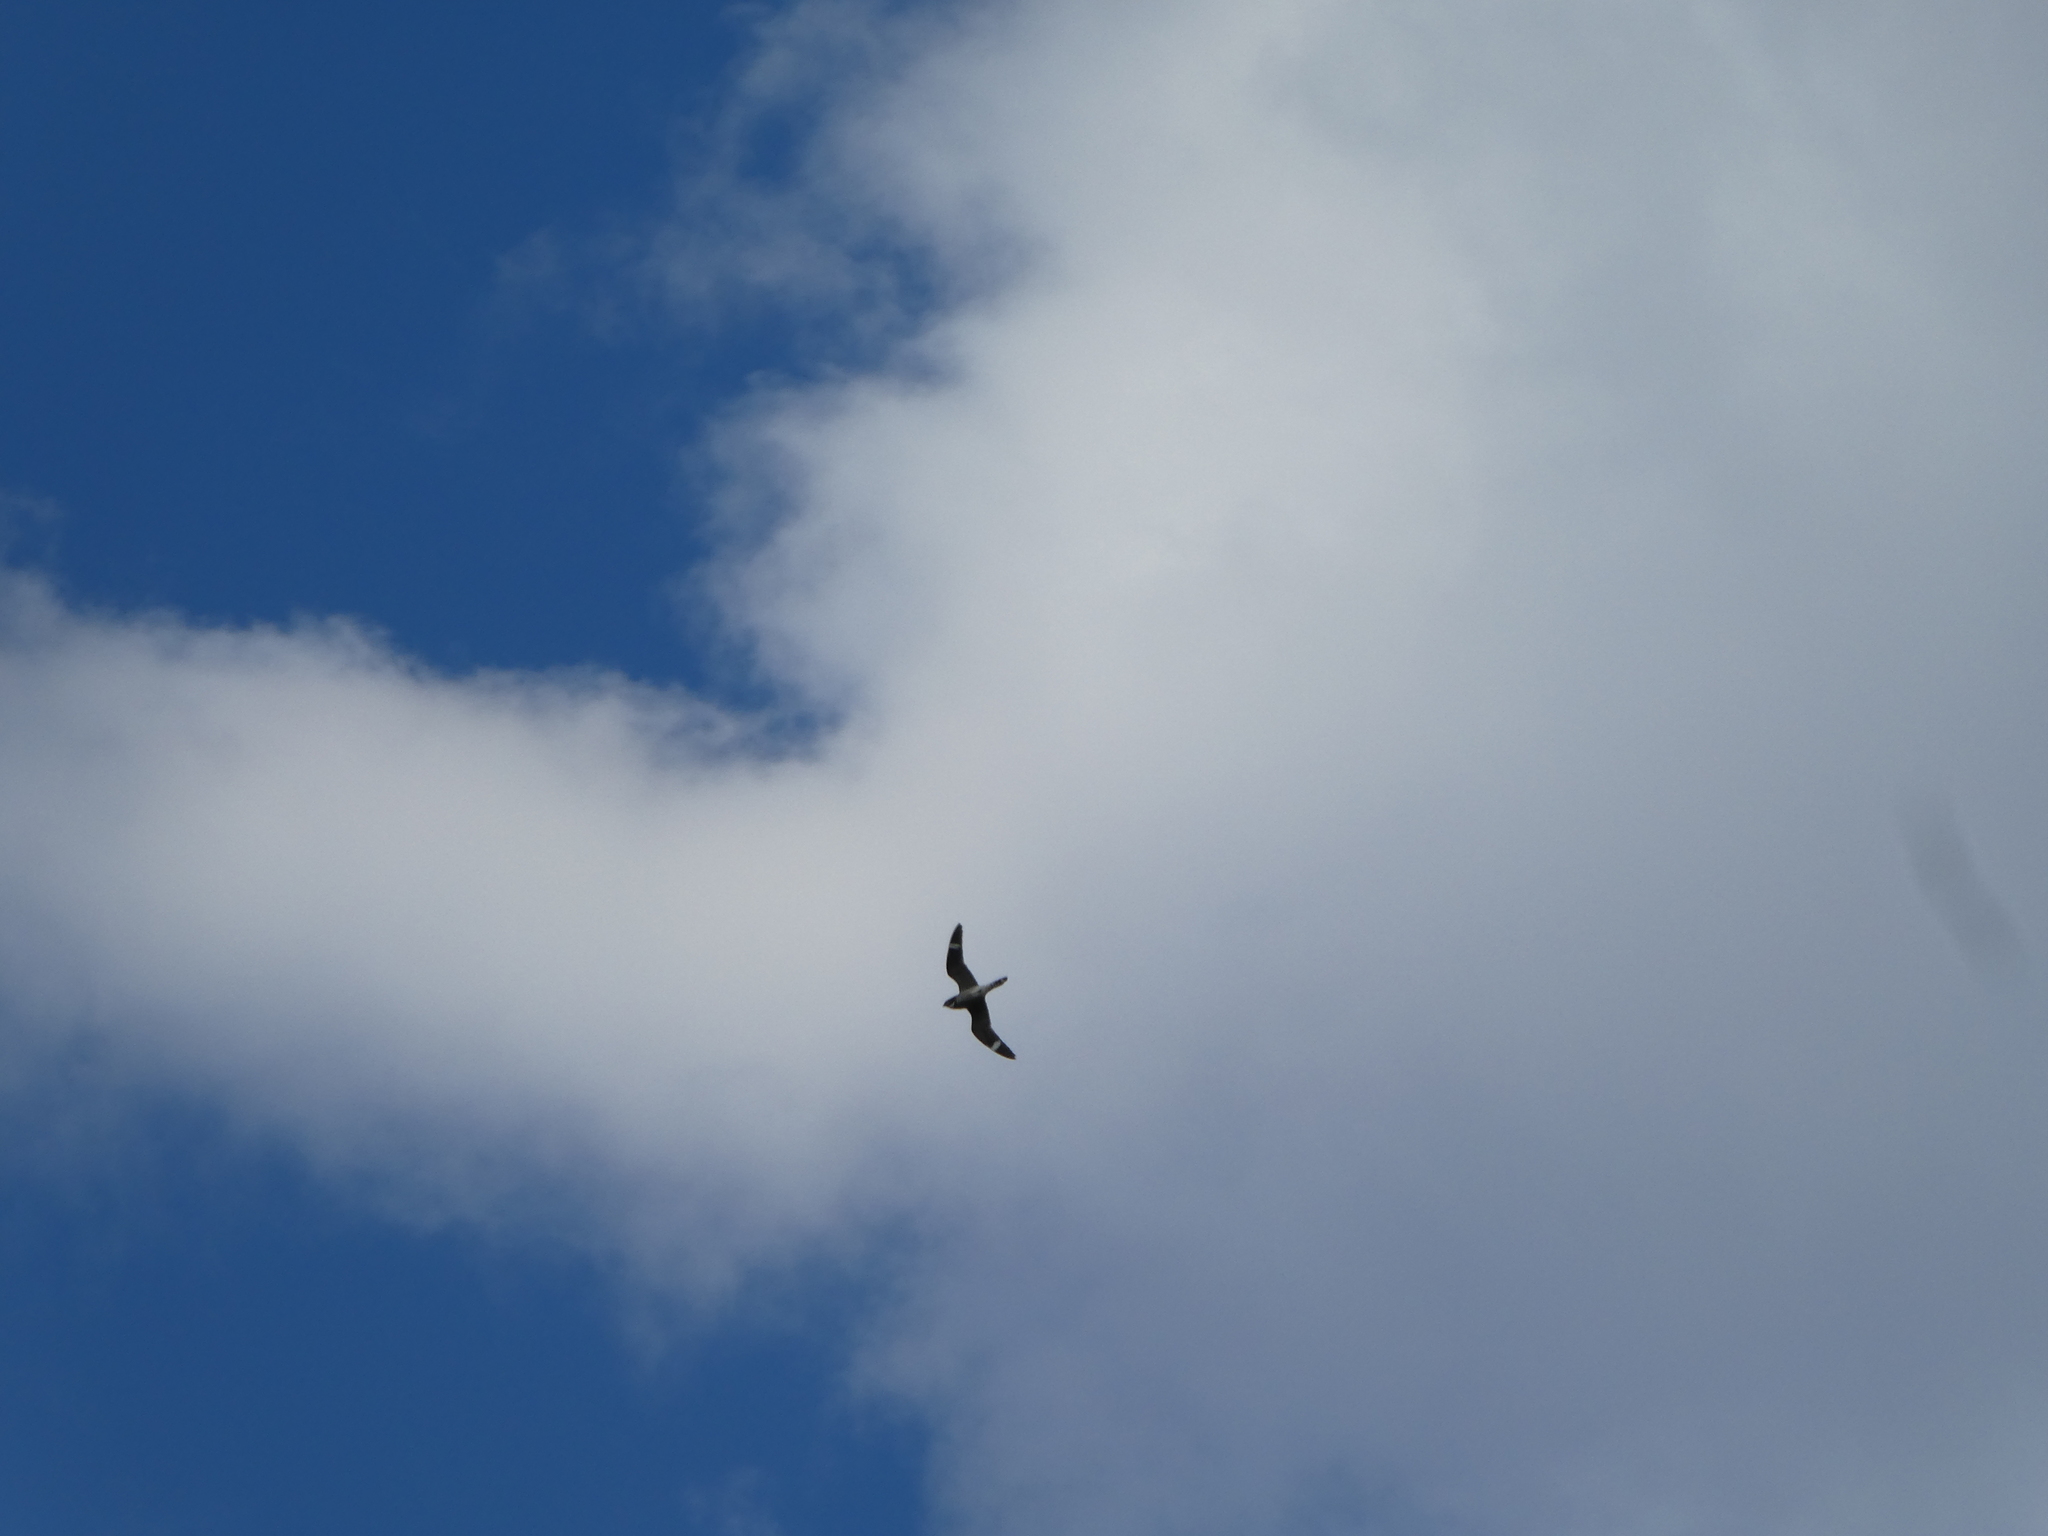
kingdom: Animalia
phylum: Chordata
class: Aves
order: Caprimulgiformes
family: Caprimulgidae
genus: Chordeiles
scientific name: Chordeiles minor
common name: Common nighthawk
